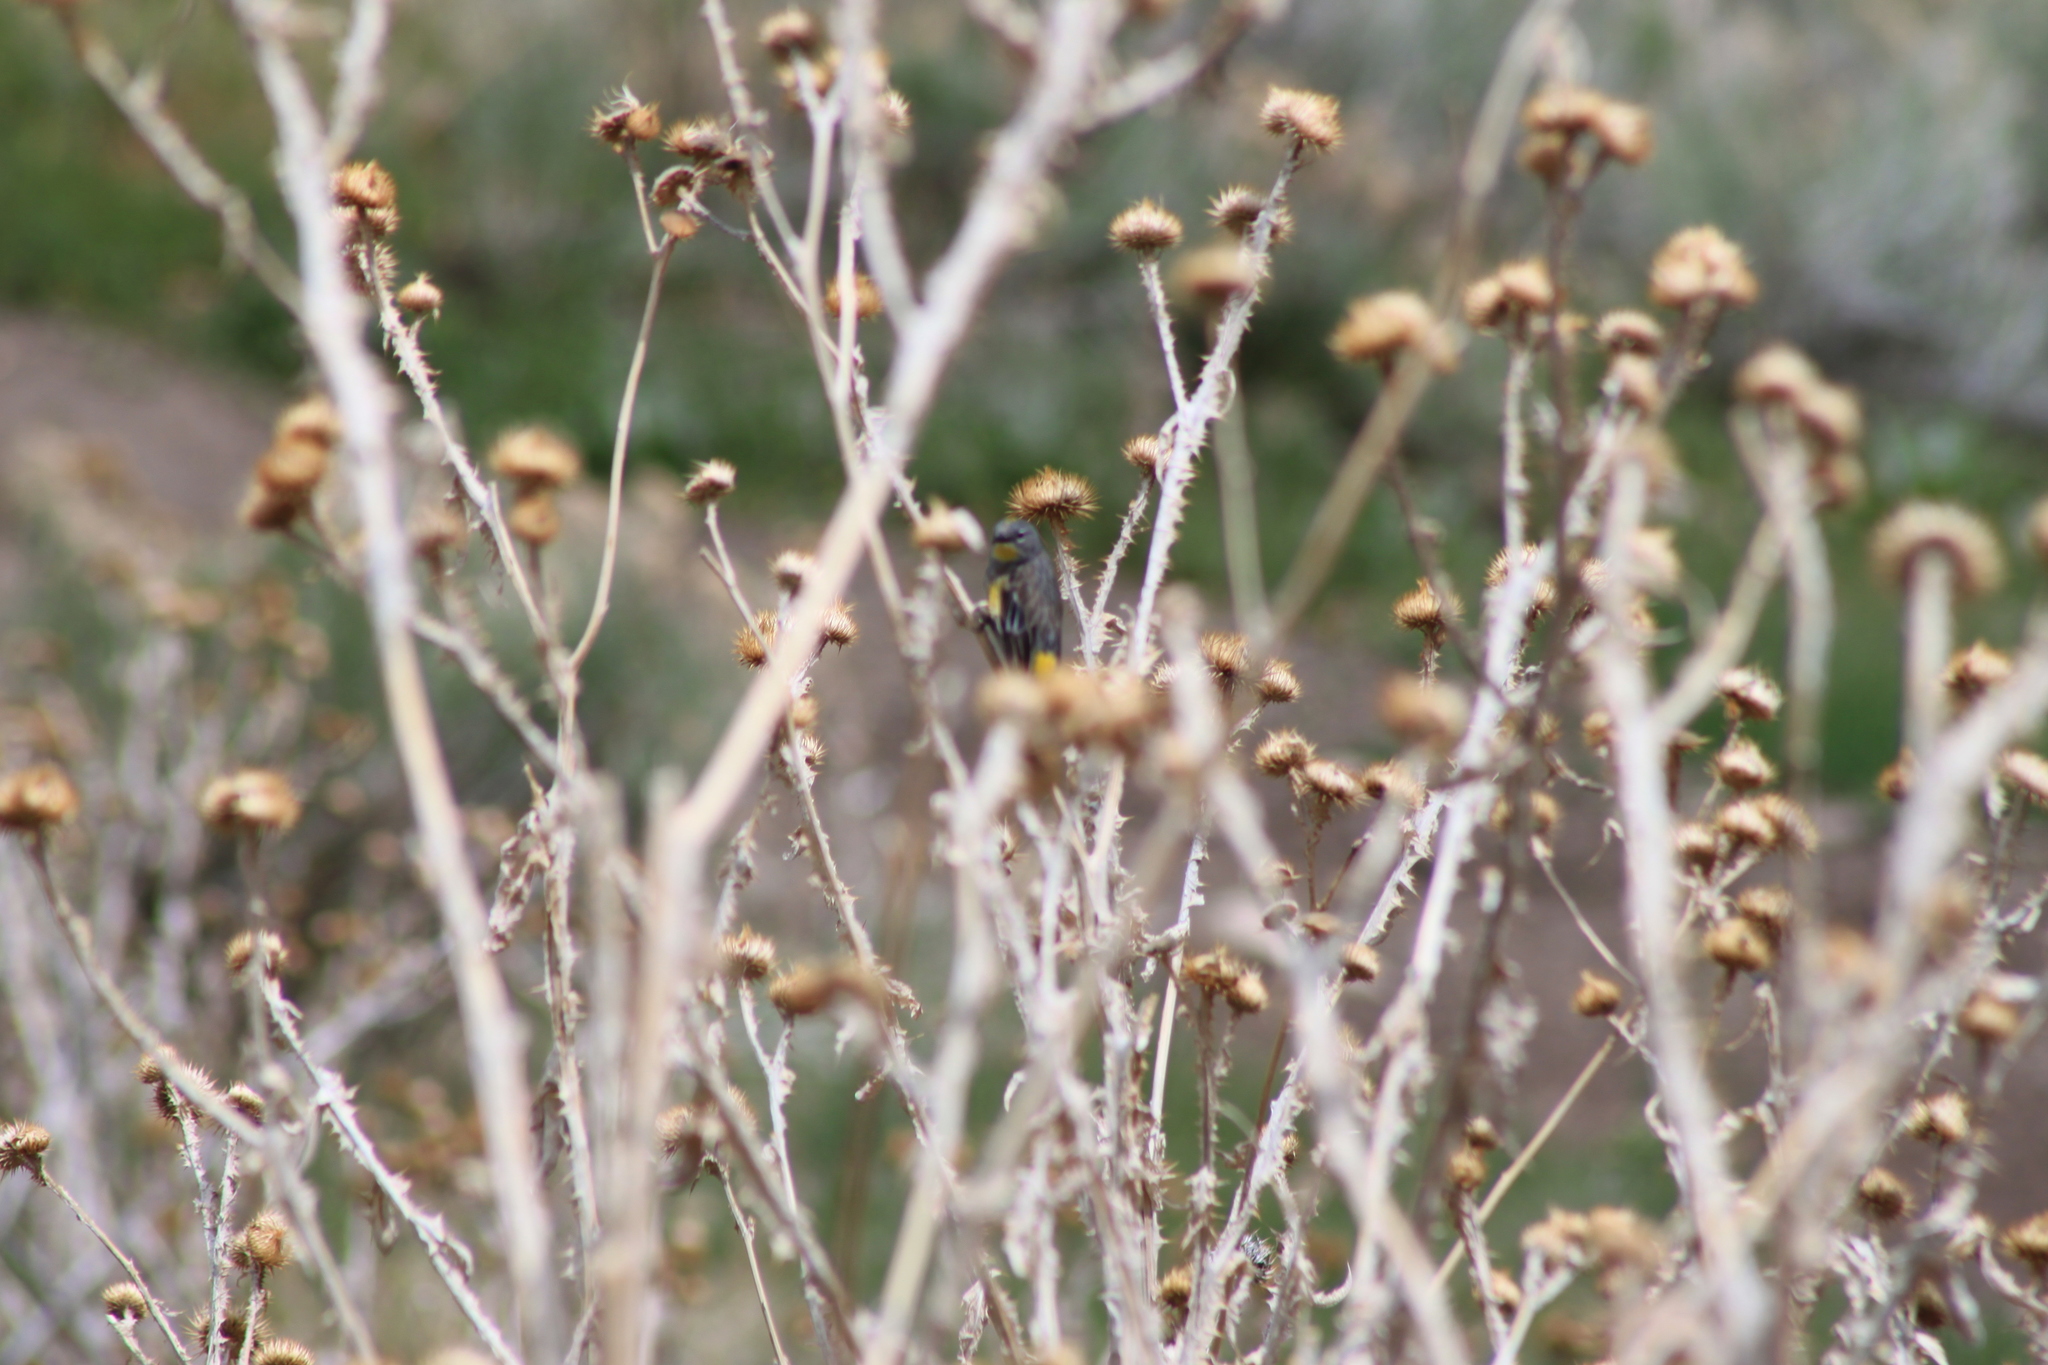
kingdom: Animalia
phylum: Chordata
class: Aves
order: Passeriformes
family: Parulidae
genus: Setophaga
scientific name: Setophaga coronata
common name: Myrtle warbler
